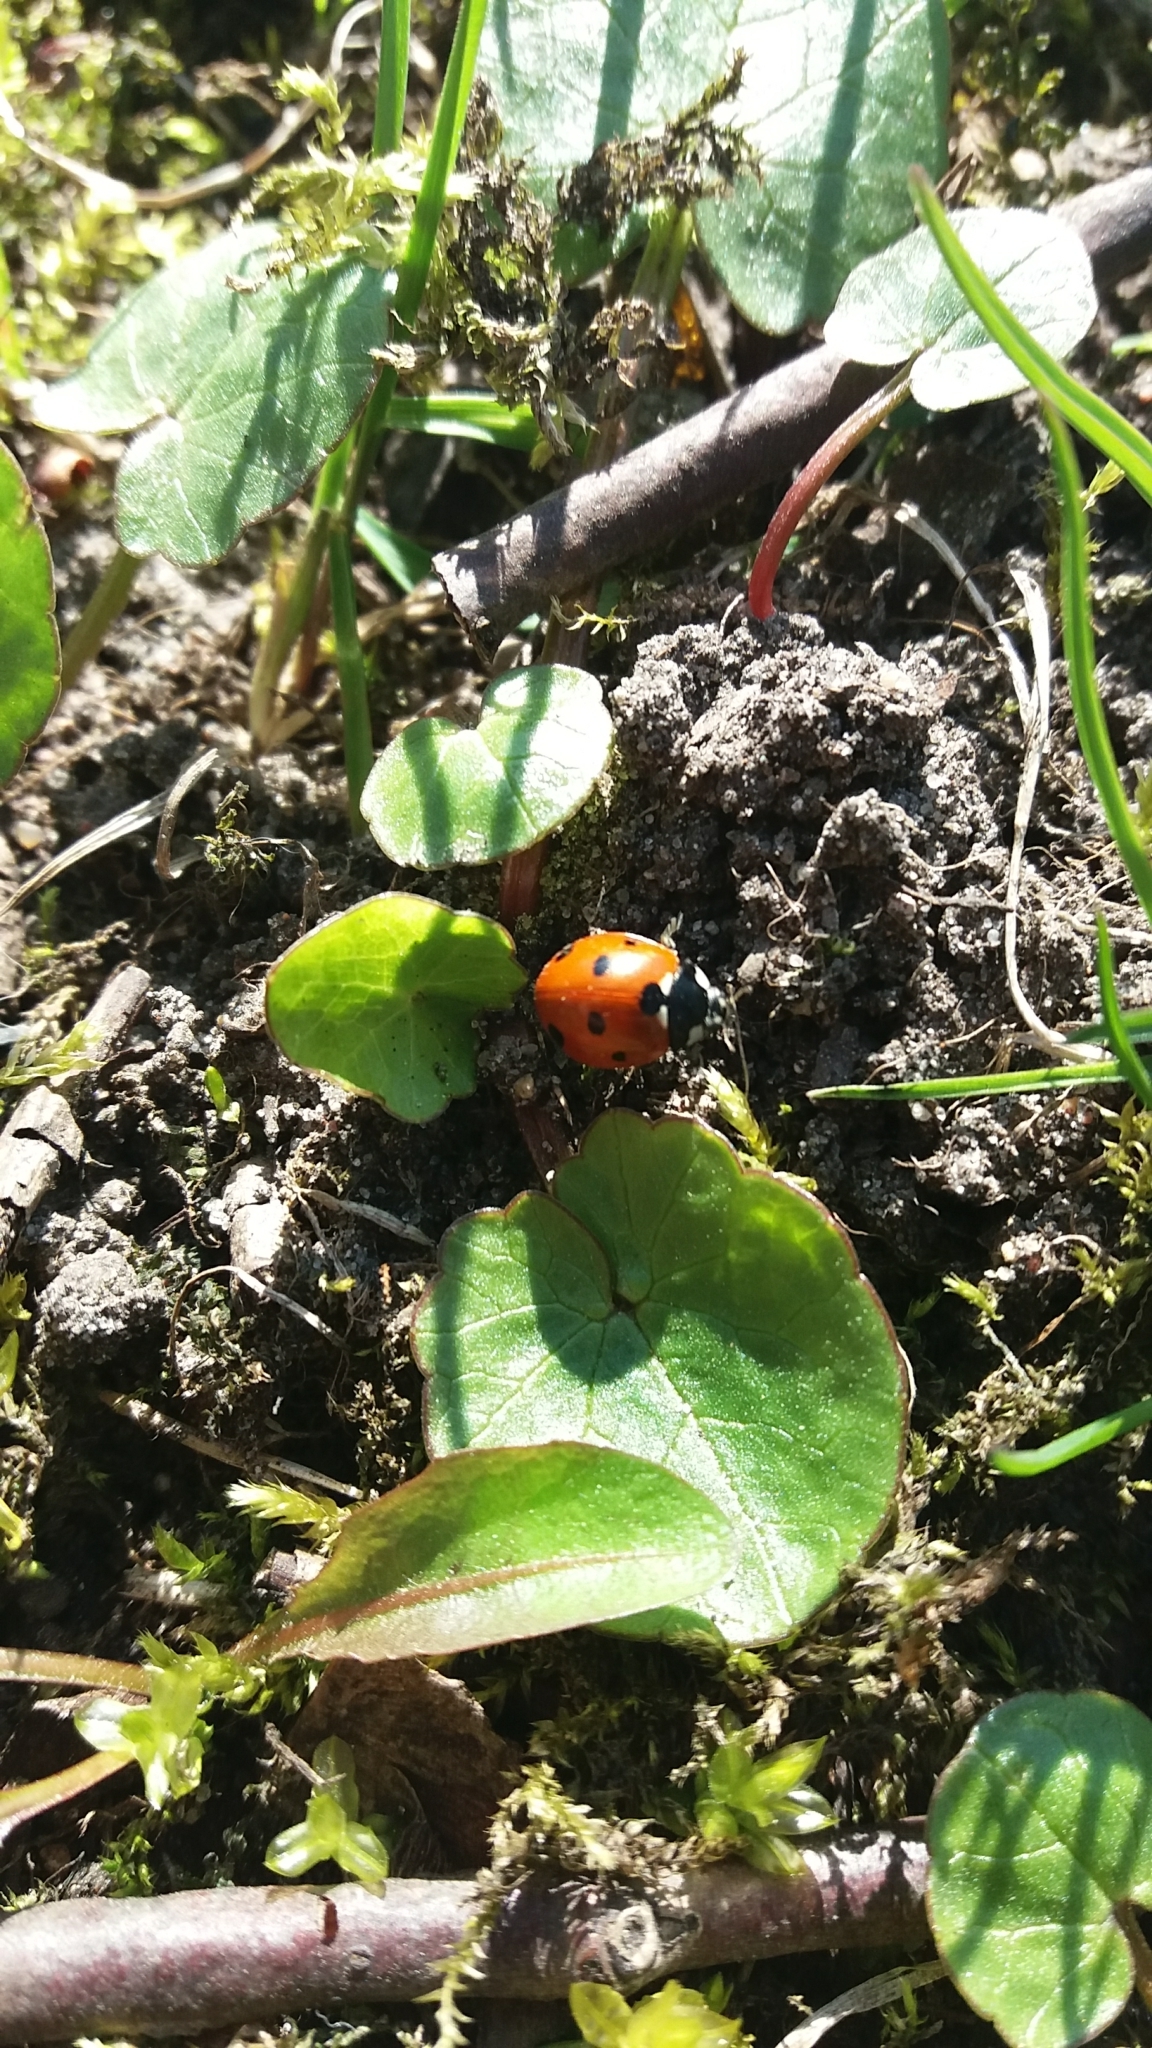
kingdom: Animalia
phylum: Arthropoda
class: Insecta
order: Coleoptera
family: Coccinellidae
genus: Coccinella
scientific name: Coccinella septempunctata
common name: Sevenspotted lady beetle
